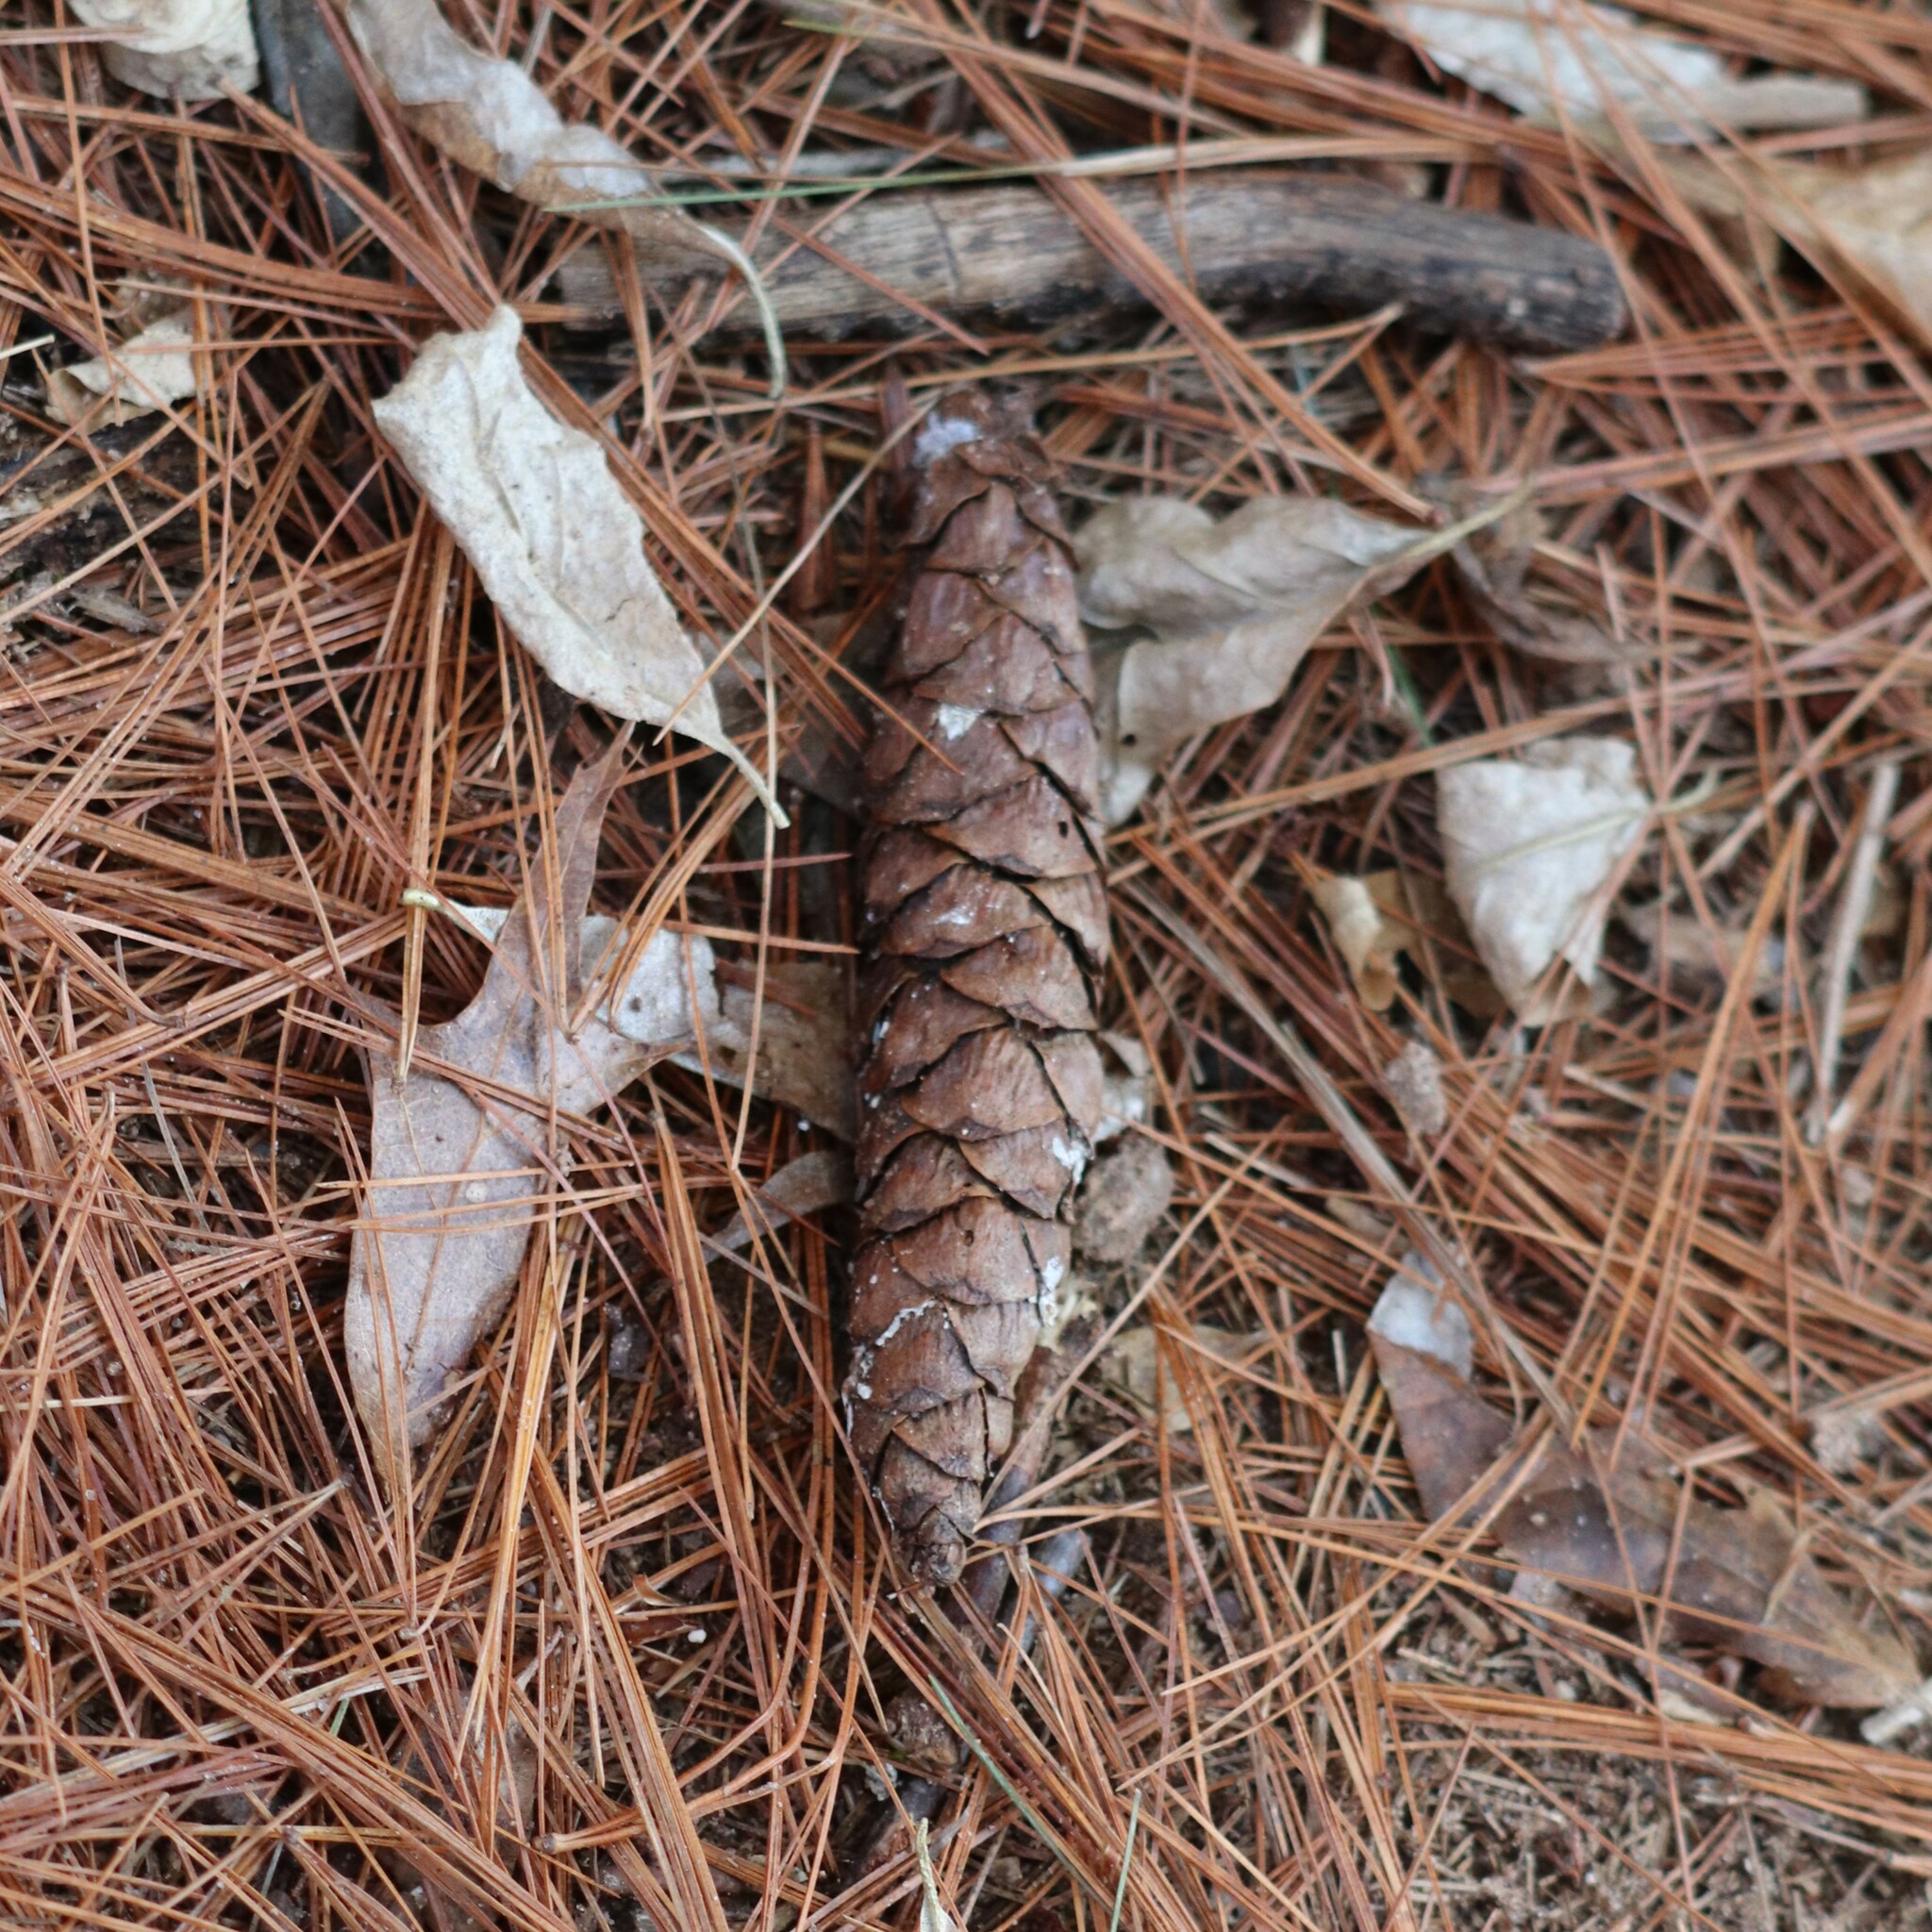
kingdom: Plantae
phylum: Tracheophyta
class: Pinopsida
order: Pinales
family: Pinaceae
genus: Pinus
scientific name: Pinus strobus
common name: Weymouth pine
